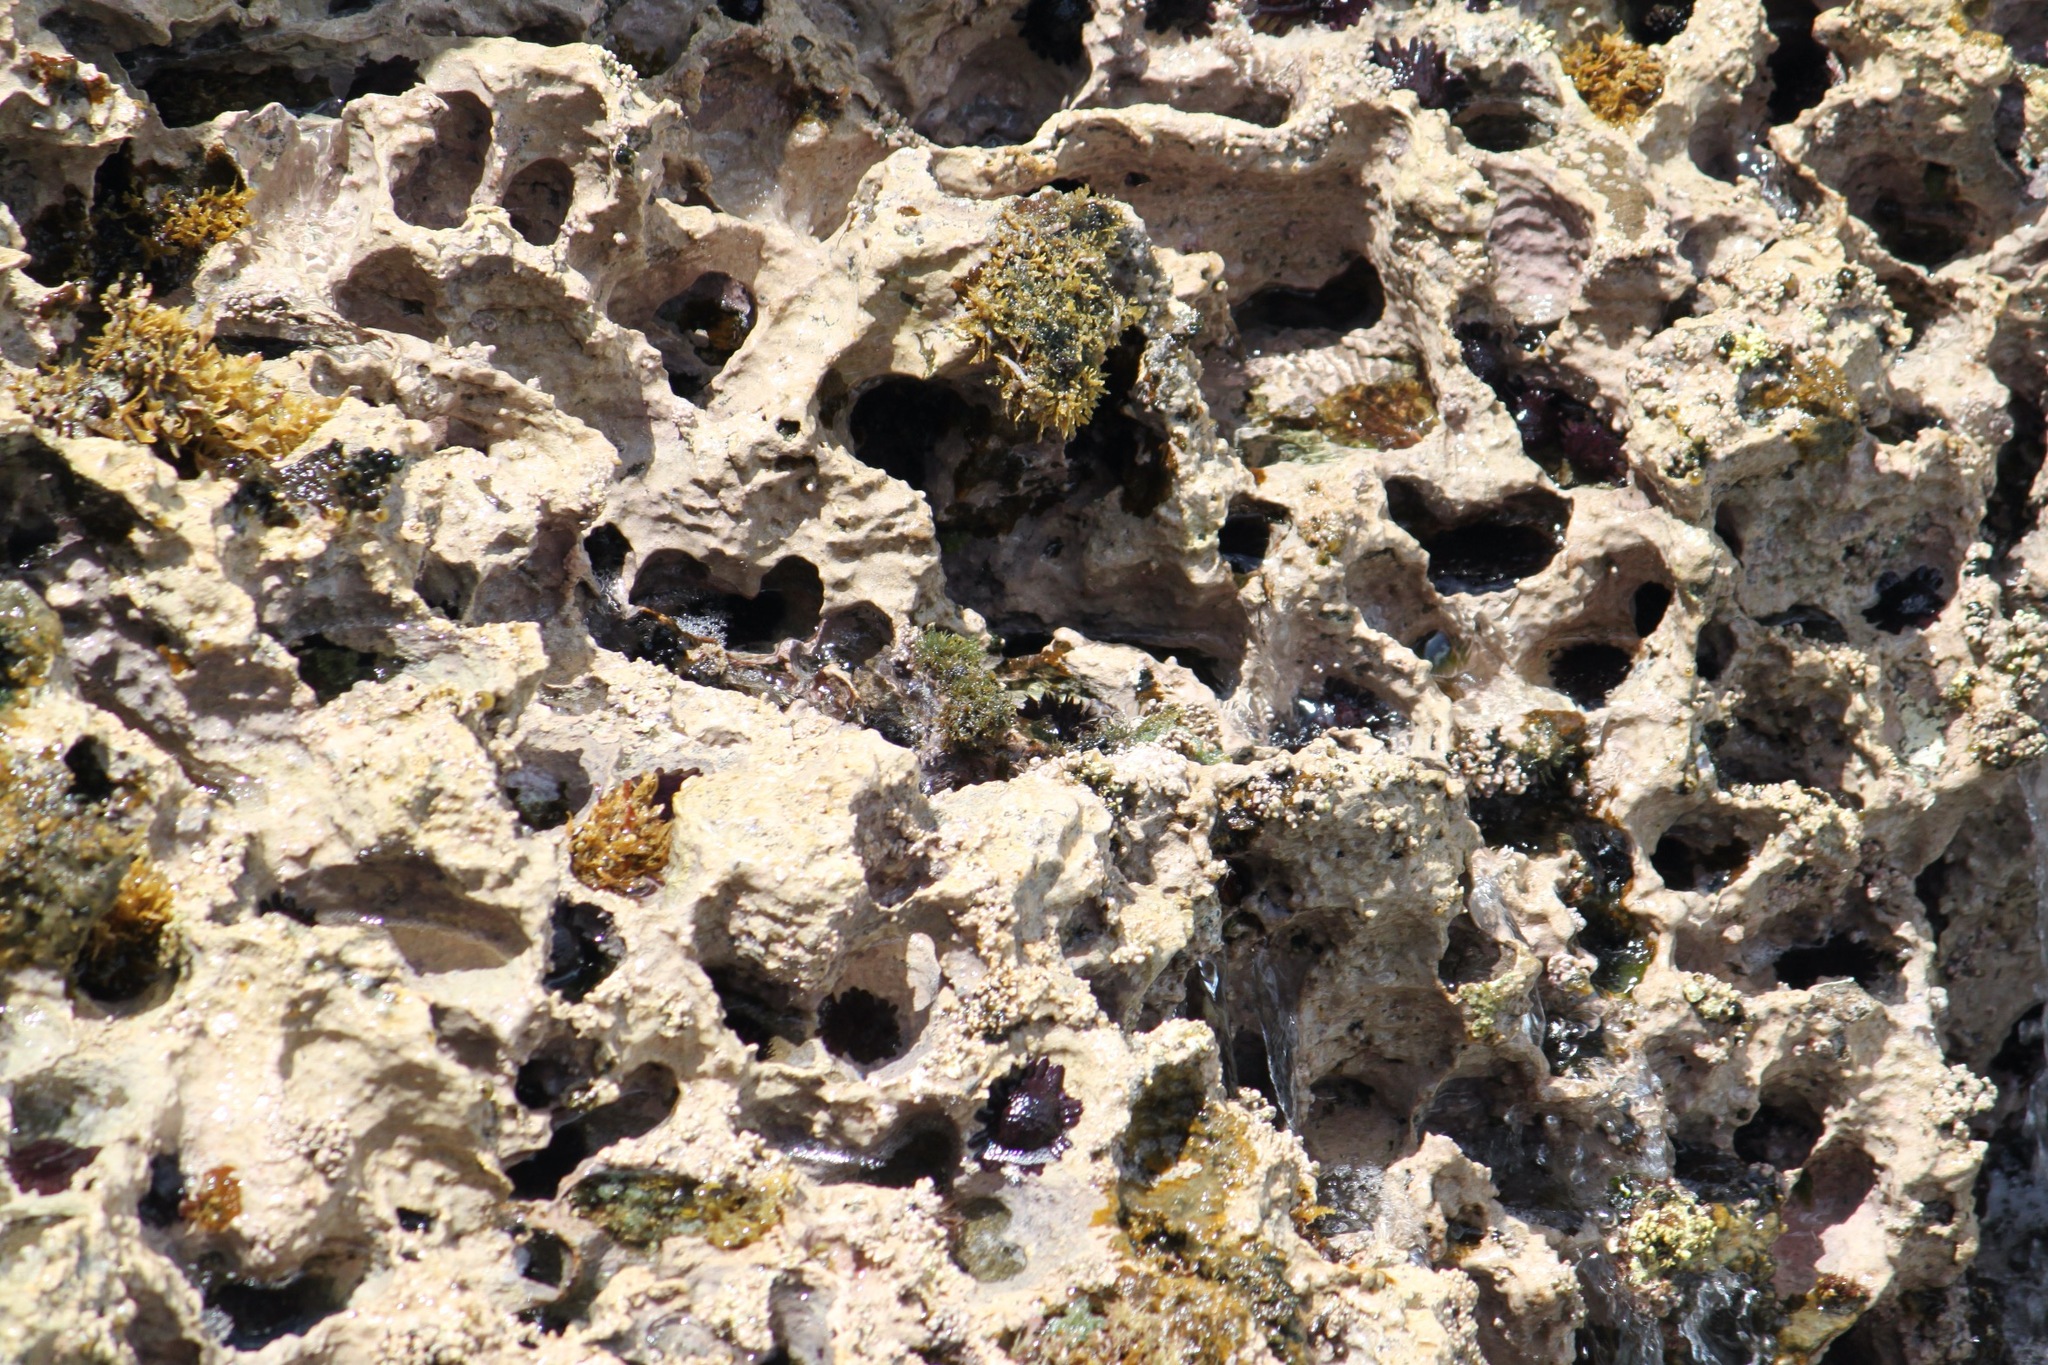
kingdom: Animalia
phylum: Echinodermata
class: Echinoidea
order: Camarodonta
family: Echinometridae
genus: Colobocentrotus
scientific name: Colobocentrotus atratus
